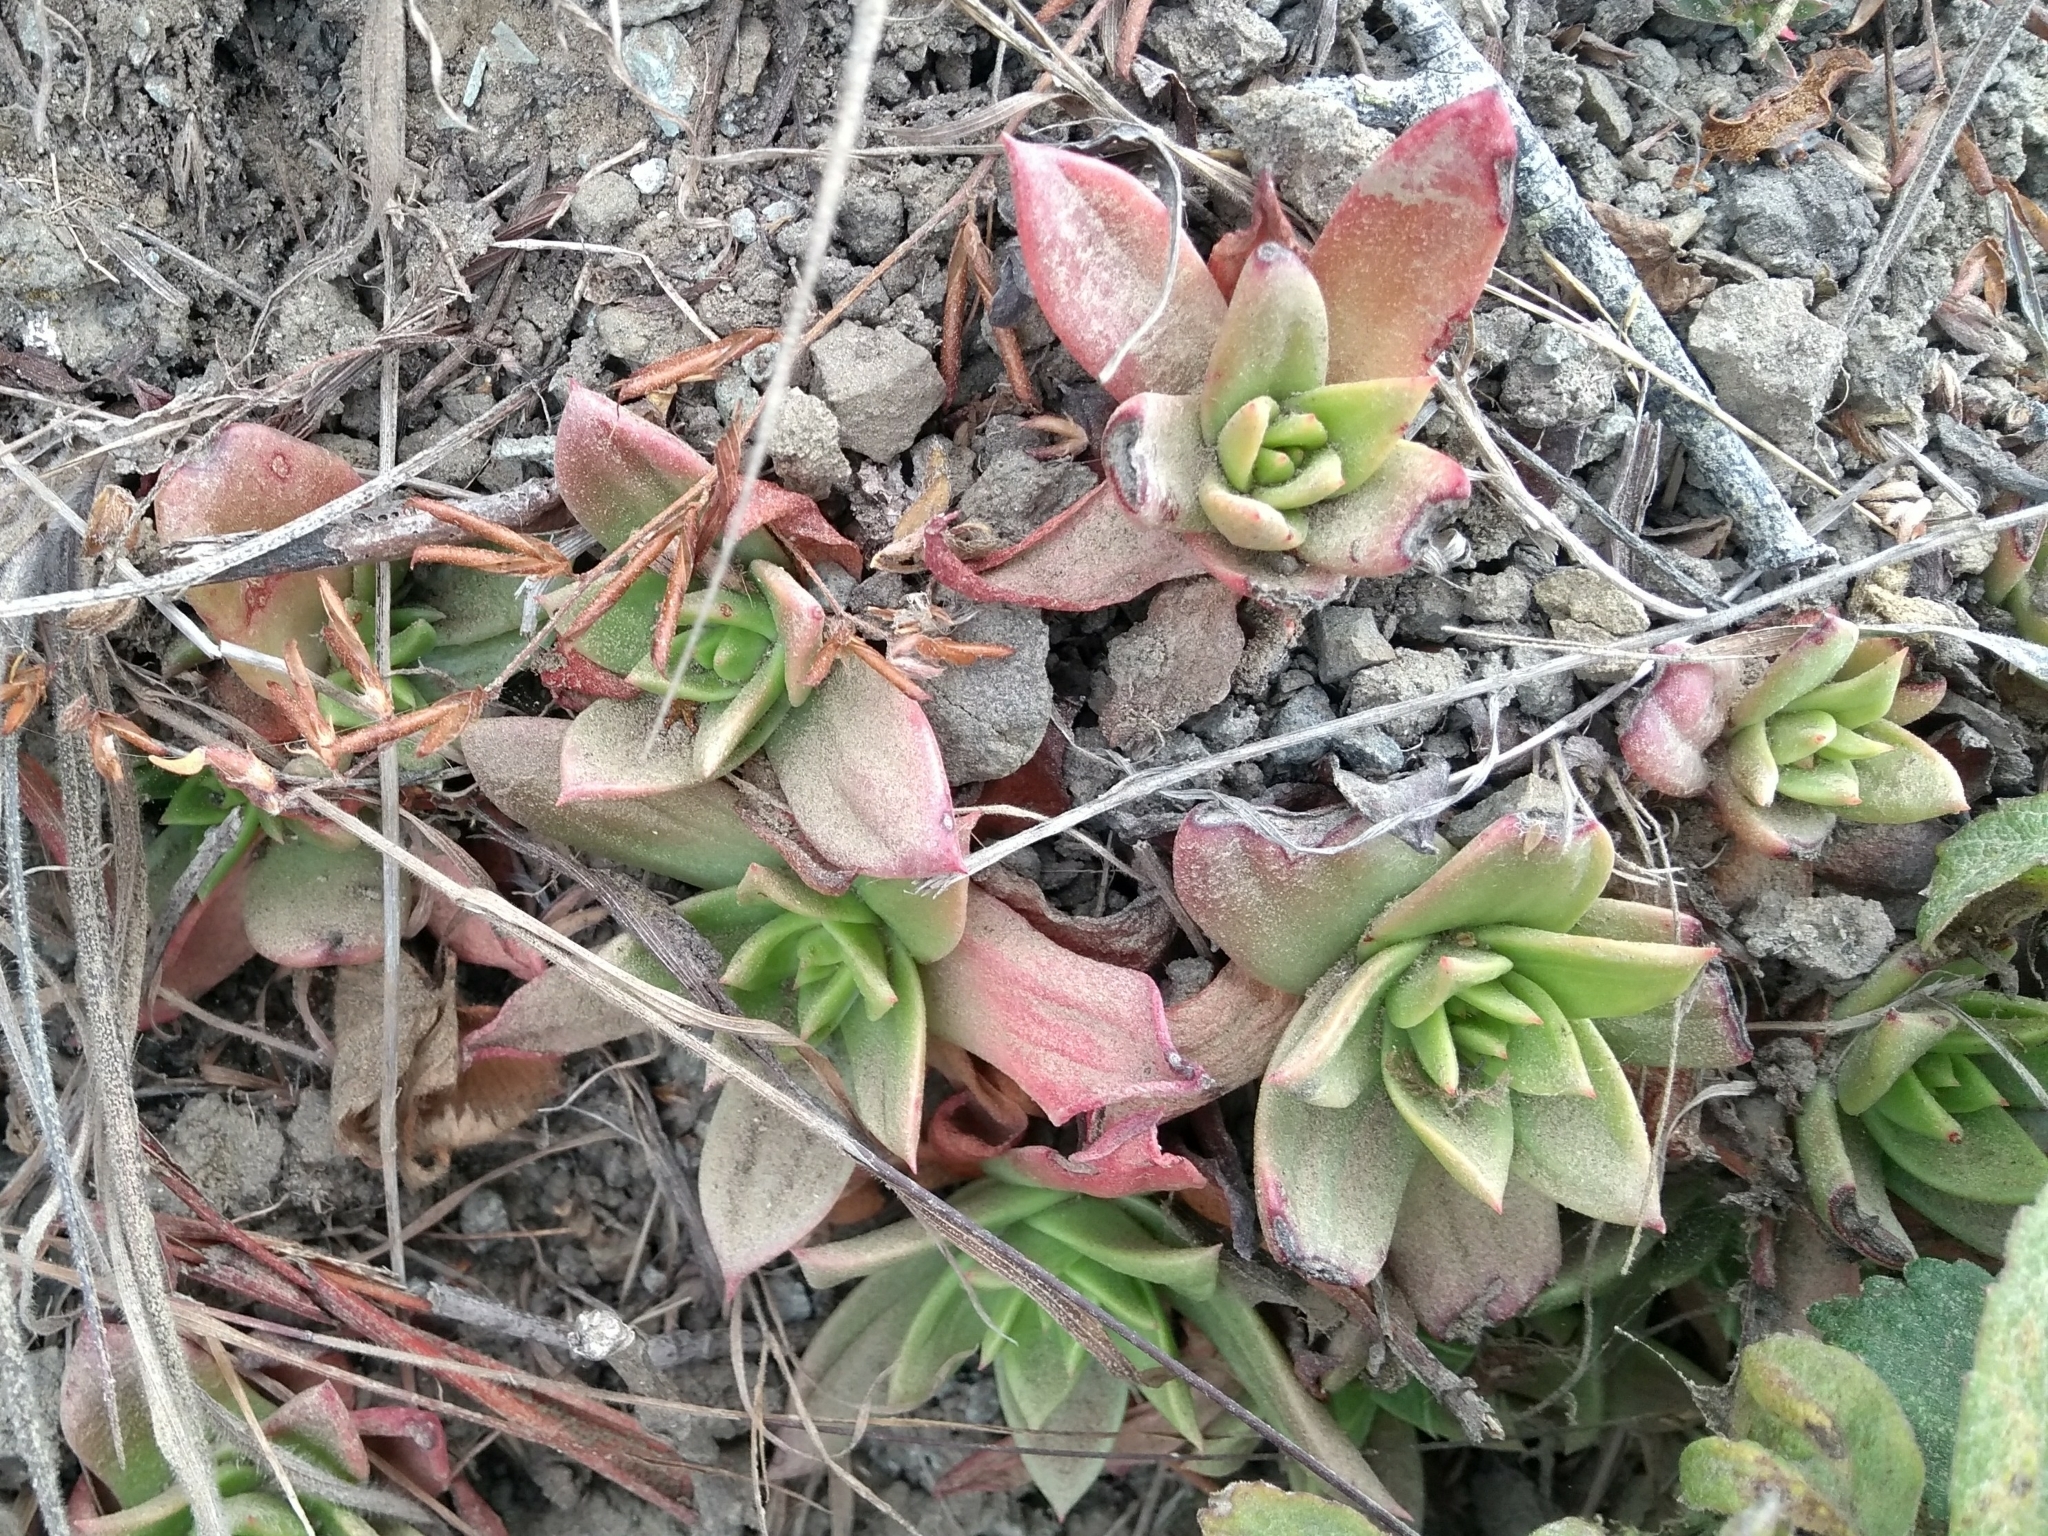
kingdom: Plantae
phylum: Tracheophyta
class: Magnoliopsida
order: Saxifragales
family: Crassulaceae
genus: Dudleya
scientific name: Dudleya farinosa
